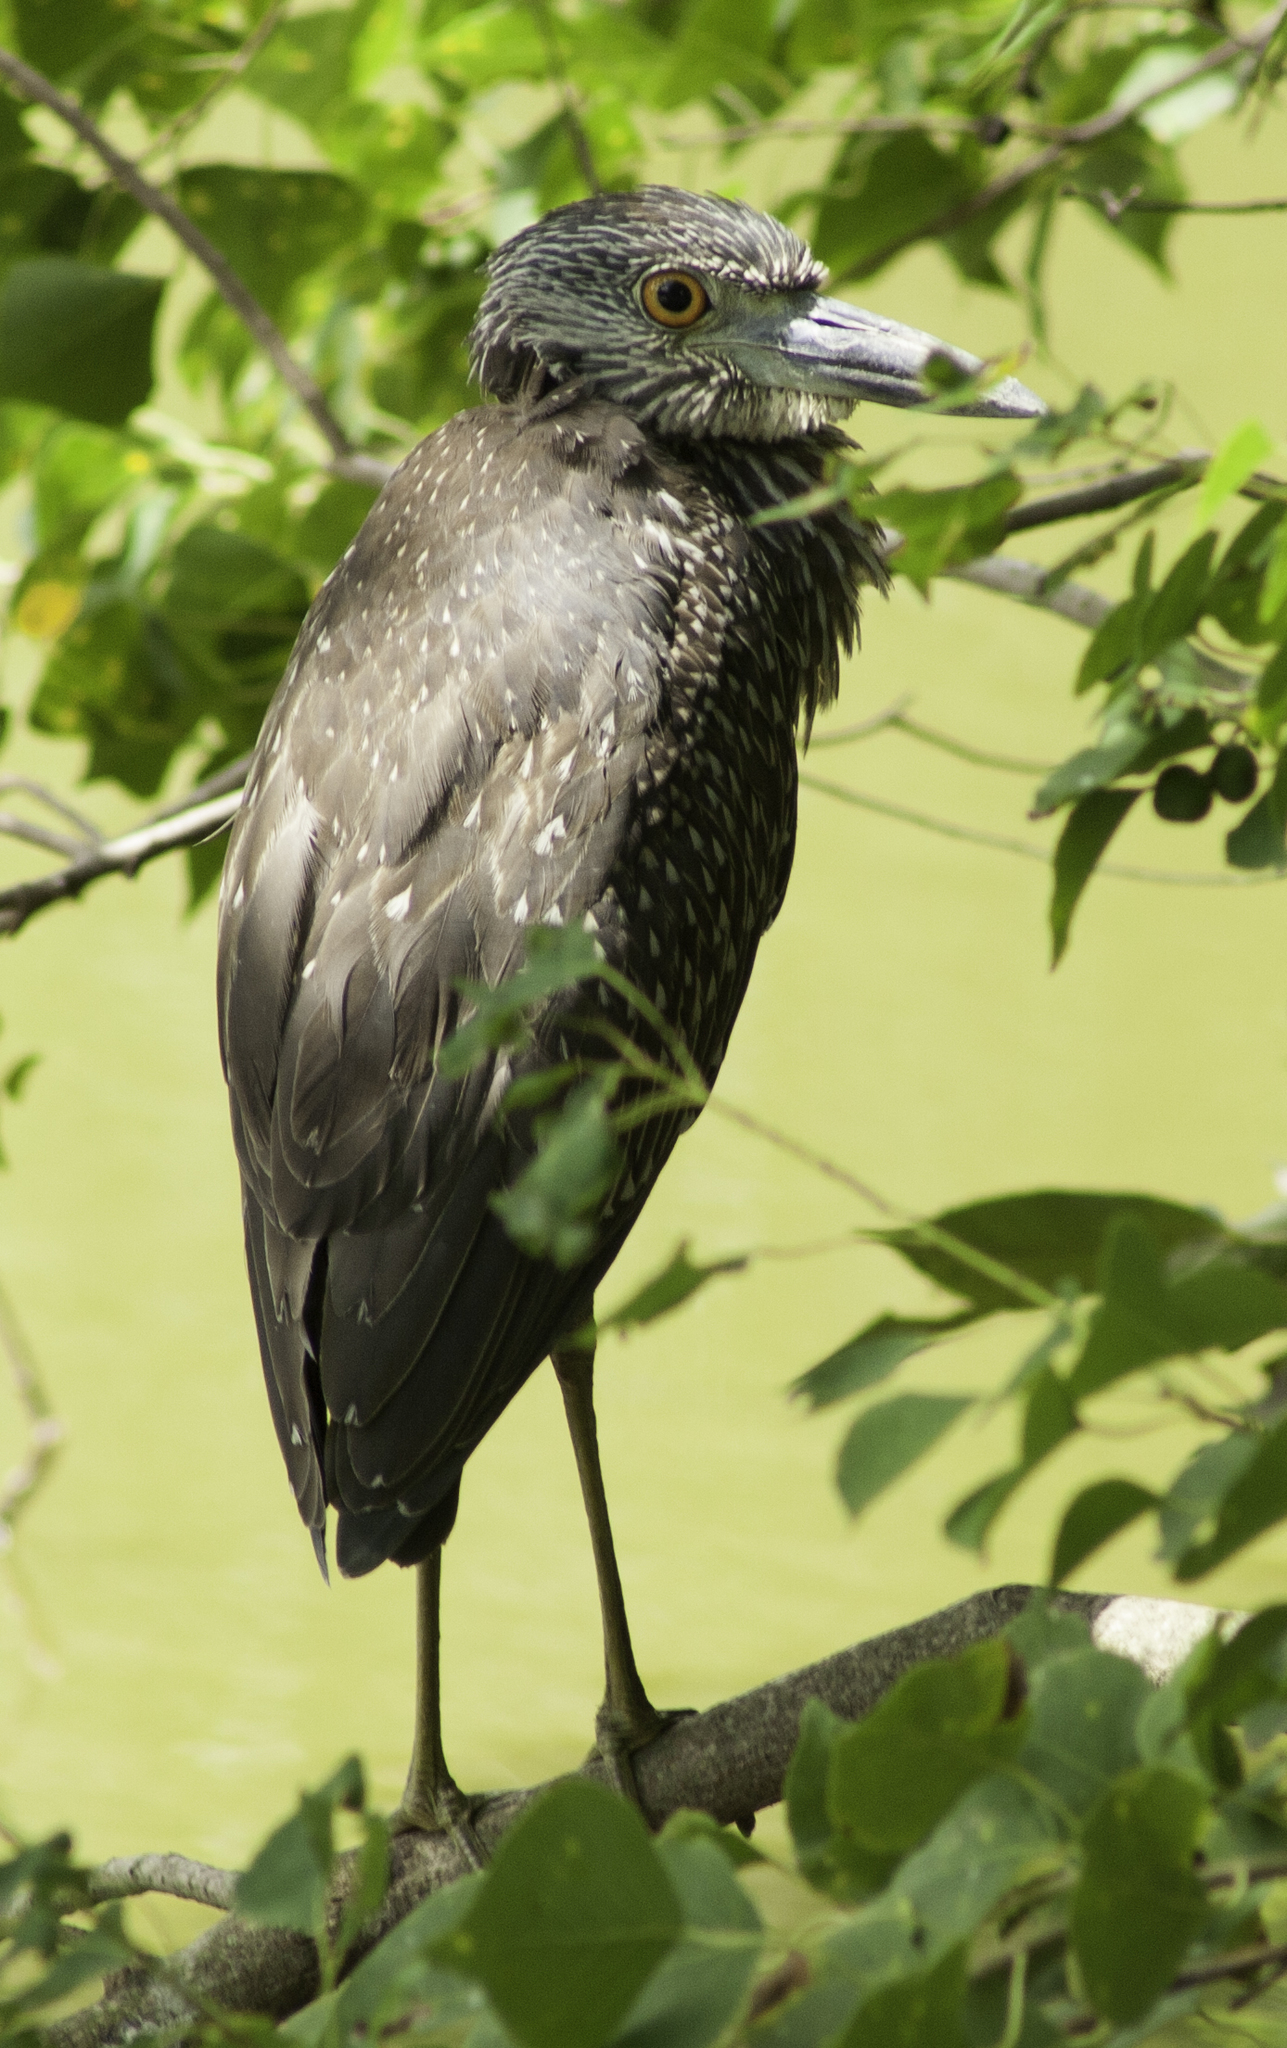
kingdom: Animalia
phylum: Chordata
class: Aves
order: Pelecaniformes
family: Ardeidae
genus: Nyctanassa
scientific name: Nyctanassa violacea
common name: Yellow-crowned night heron
